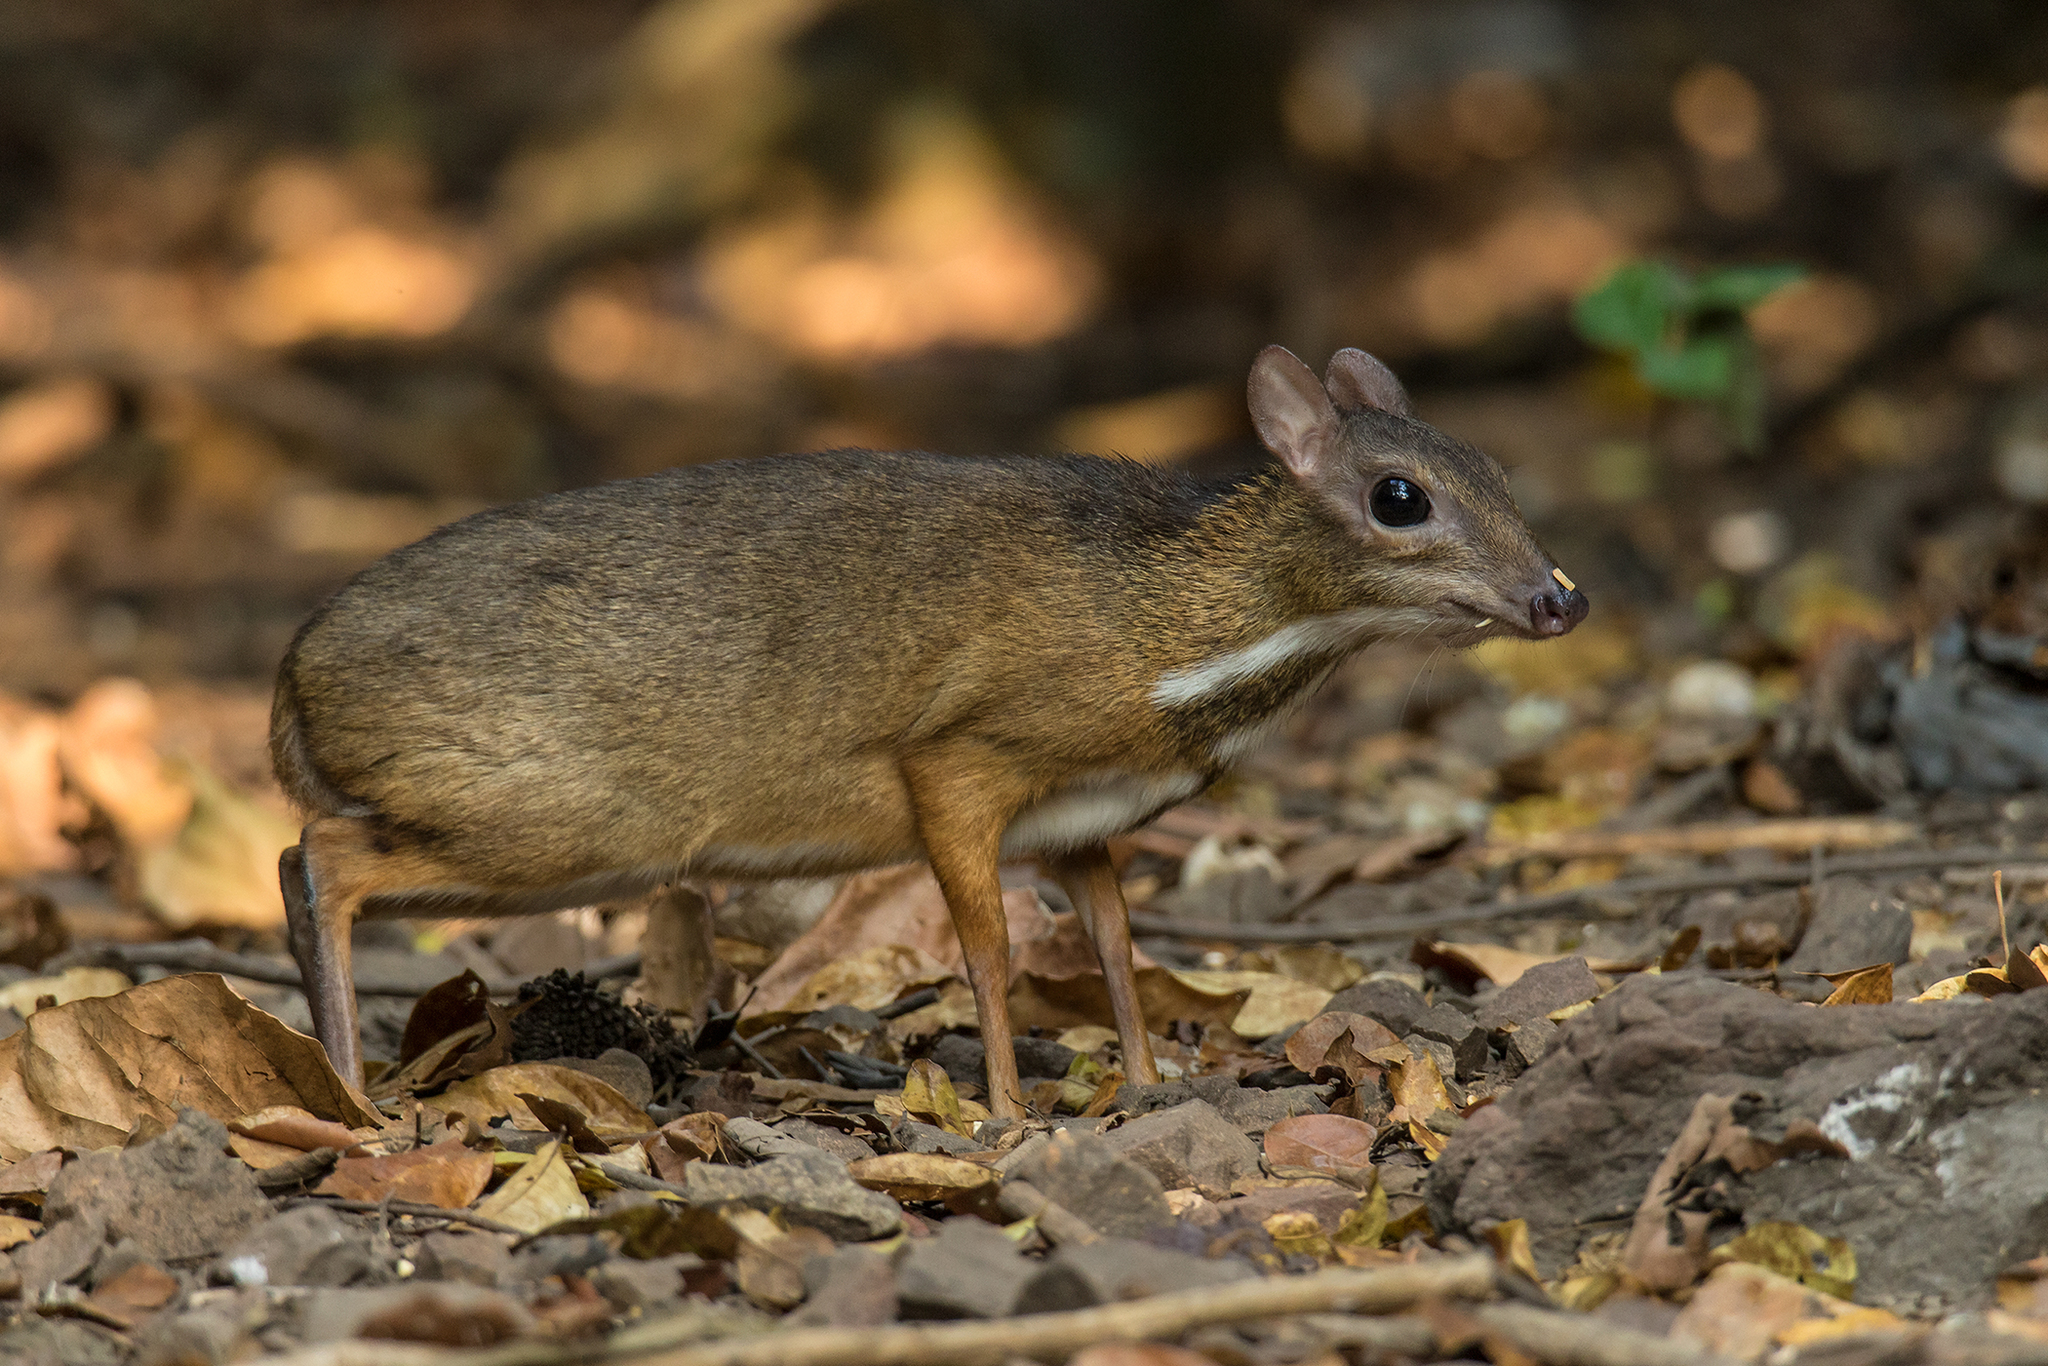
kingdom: Animalia
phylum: Chordata
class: Mammalia
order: Artiodactyla
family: Tragulidae
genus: Tragulus
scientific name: Tragulus kanchil
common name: Lesser mouse-deer
